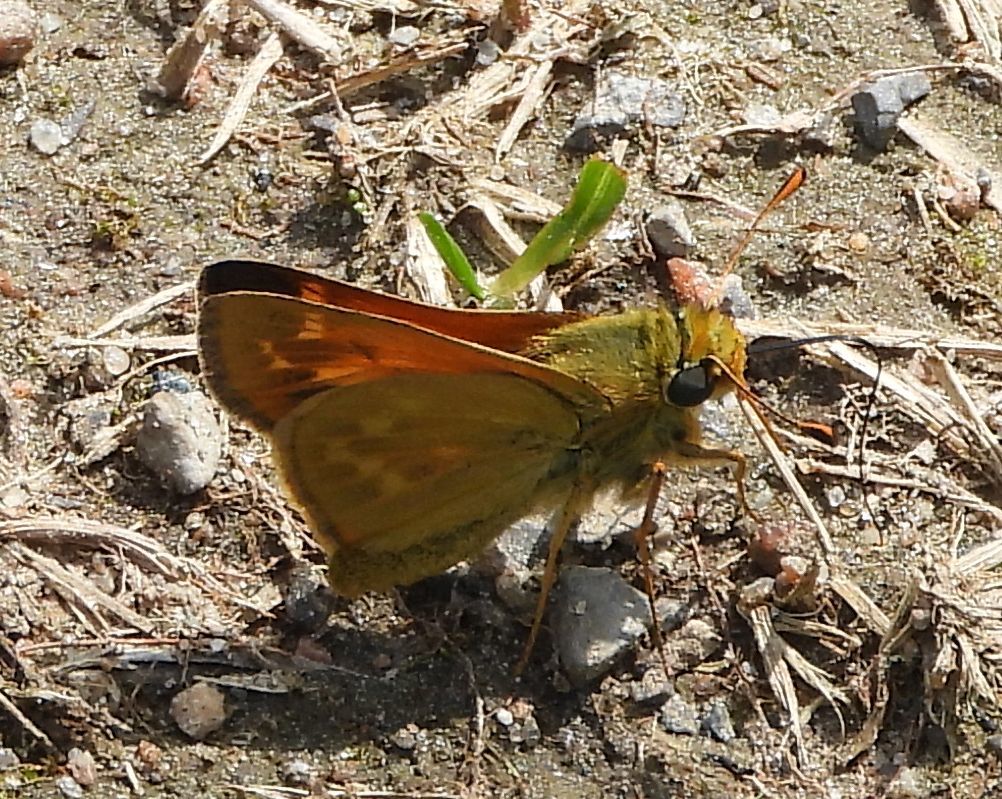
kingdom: Animalia
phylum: Arthropoda
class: Insecta
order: Lepidoptera
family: Hesperiidae
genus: Hesperia
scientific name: Hesperia sassacus
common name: Indian skipper
